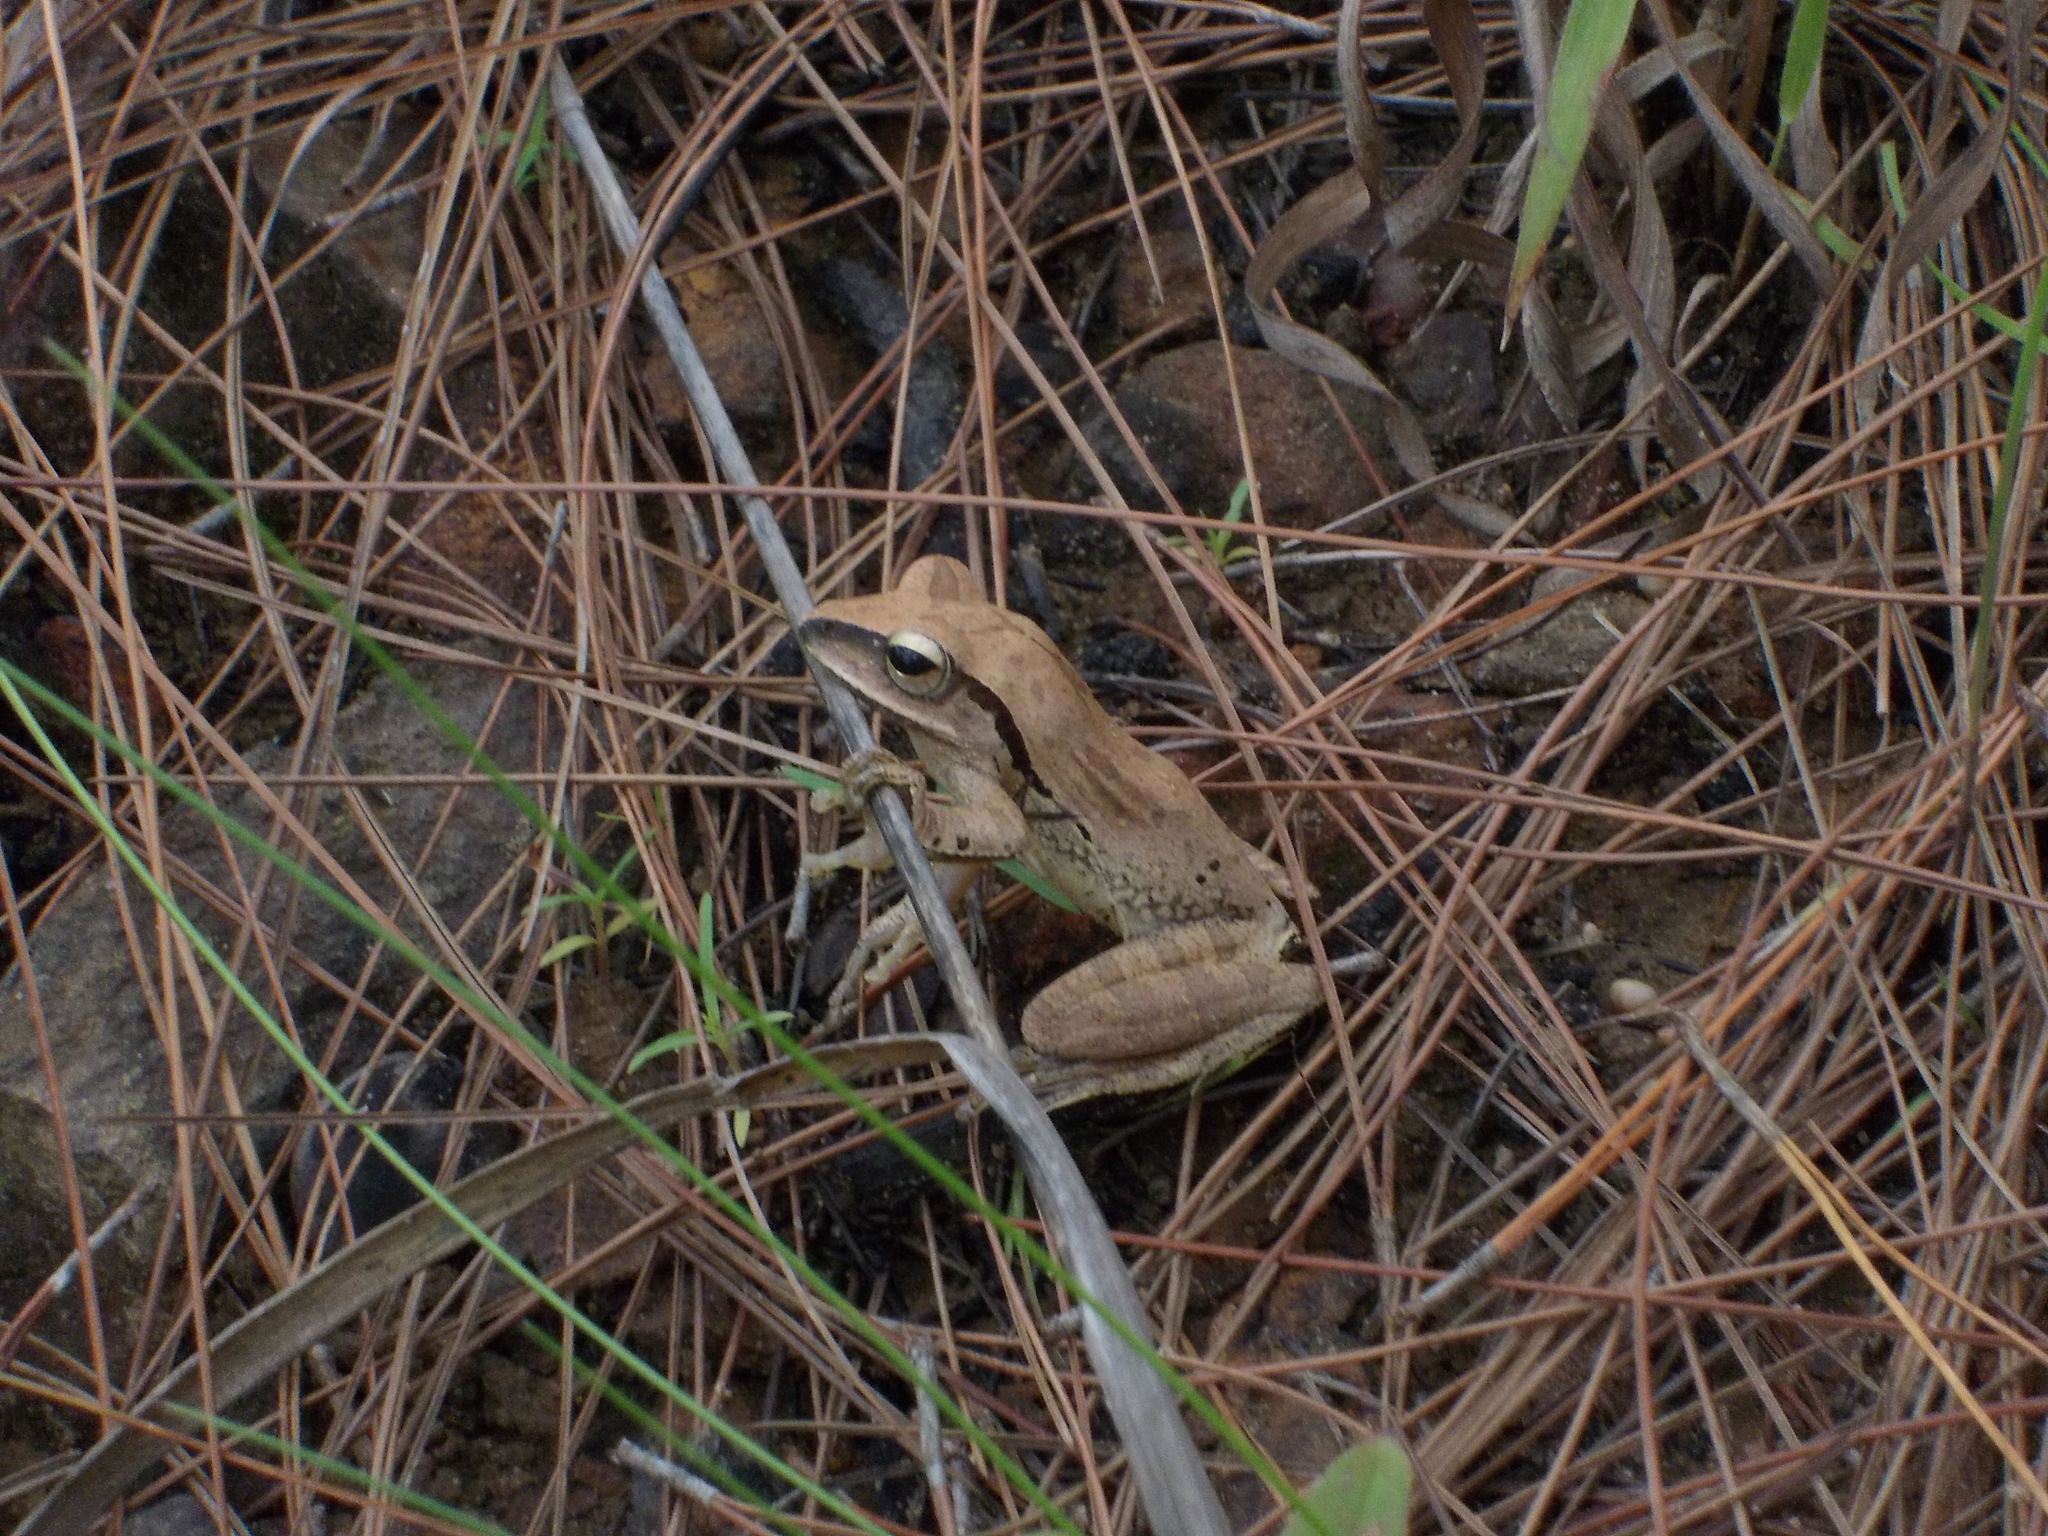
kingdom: Animalia
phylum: Chordata
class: Amphibia
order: Anura
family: Rhacophoridae
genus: Polypedates
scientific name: Polypedates megacephalus
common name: Hong kong whipping frog
